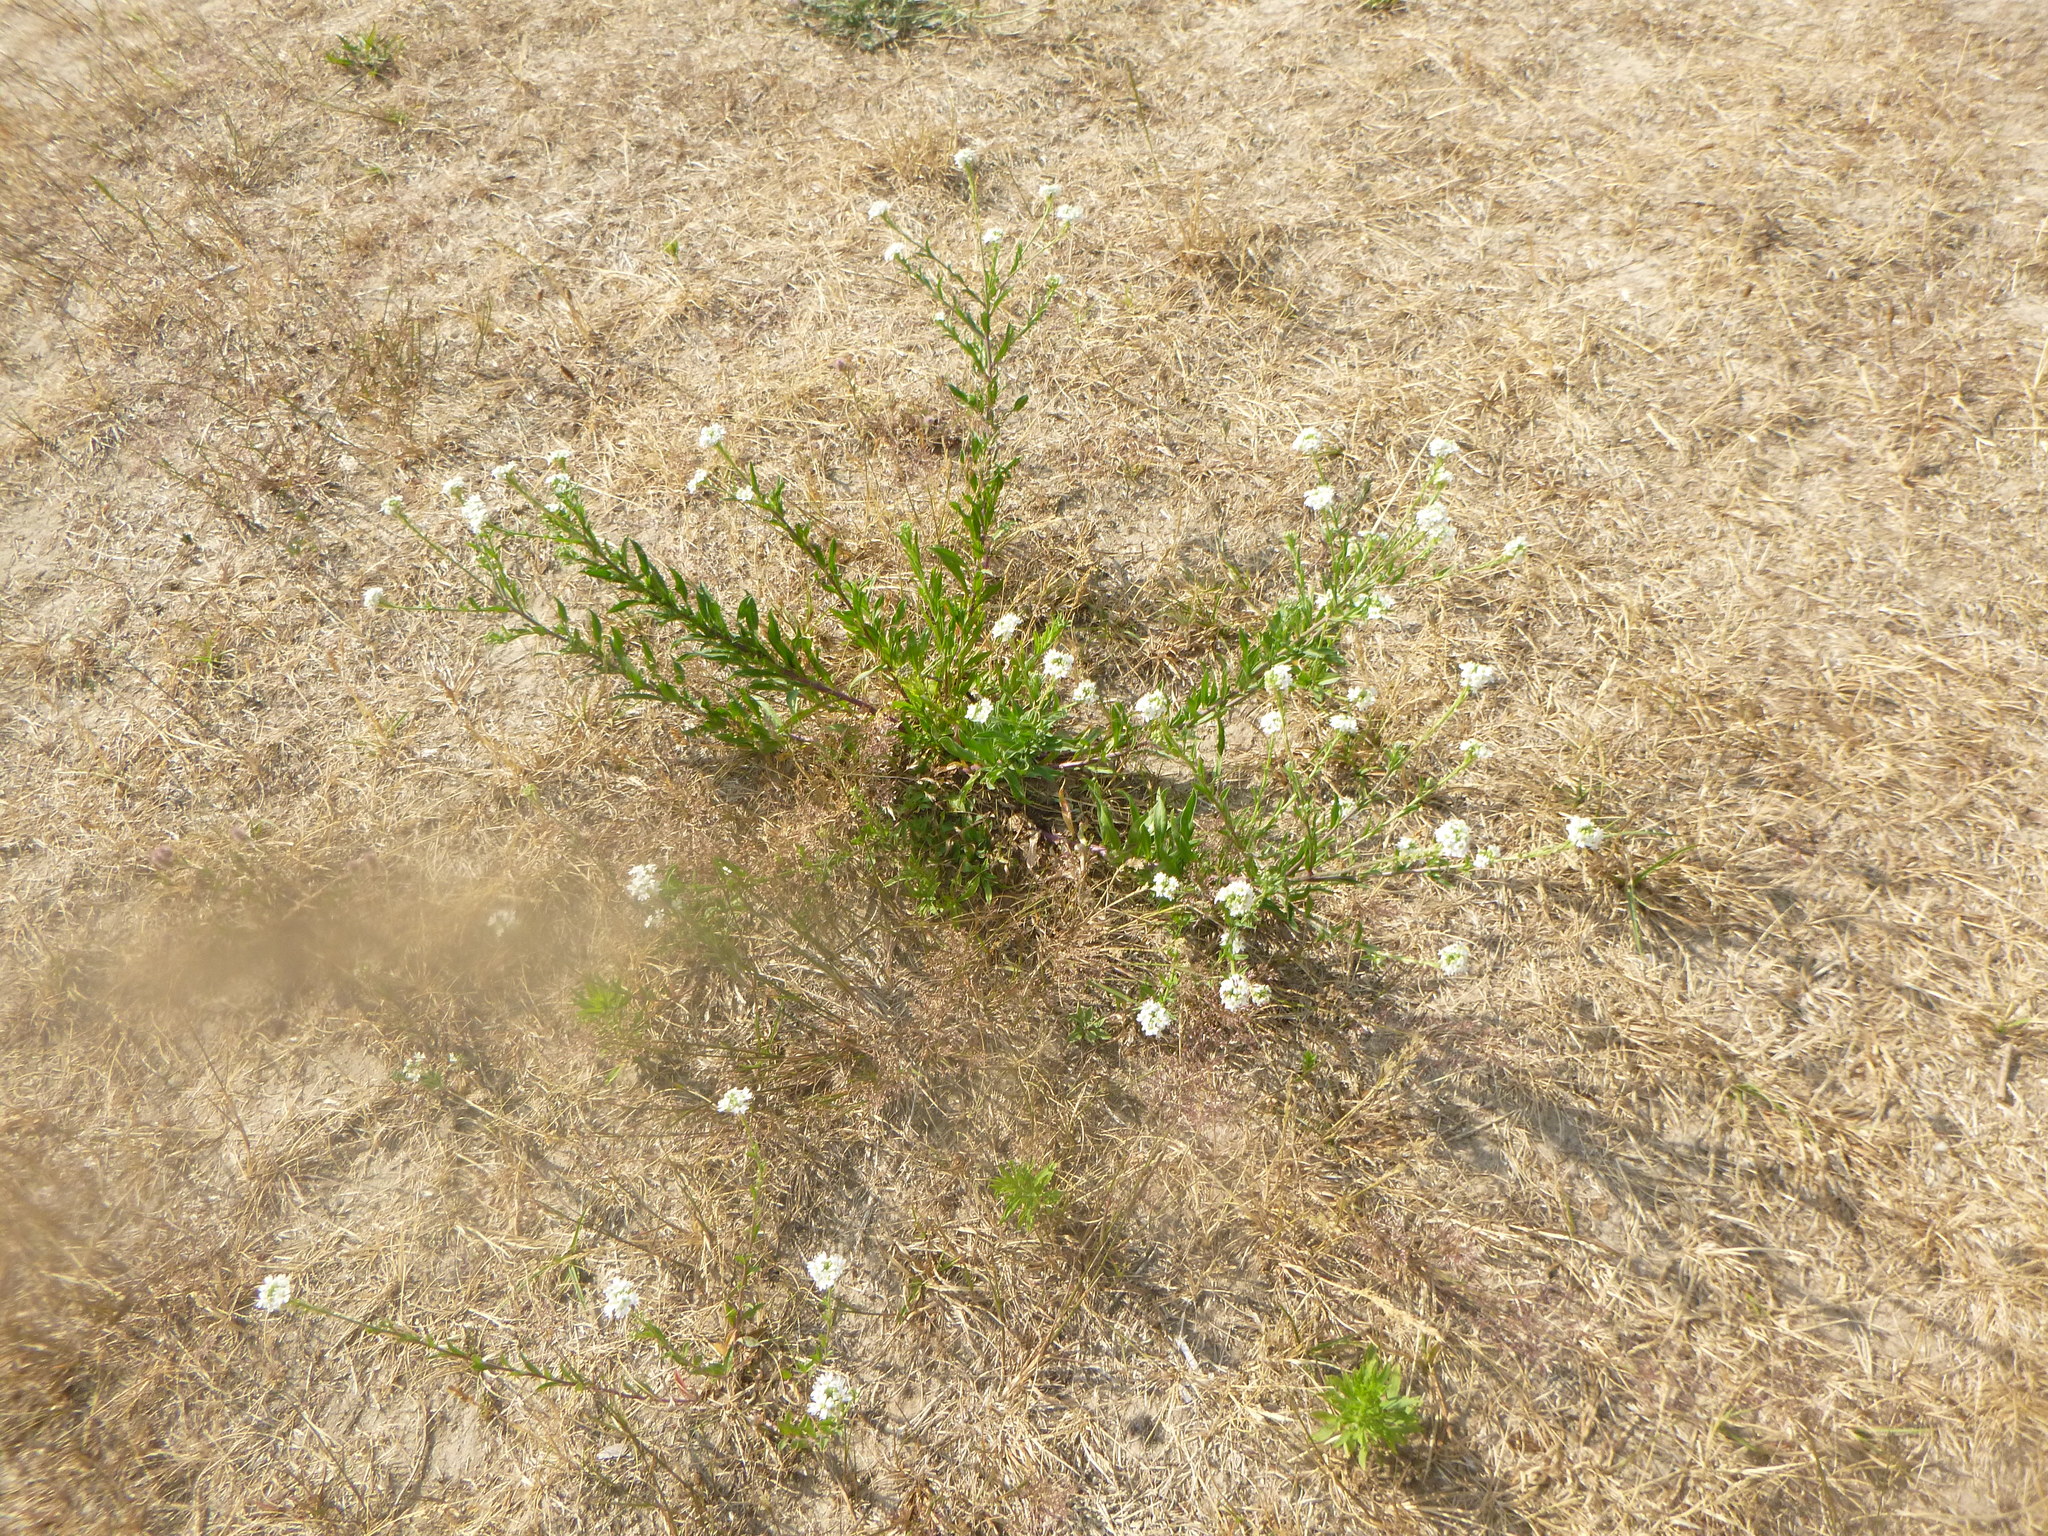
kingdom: Plantae
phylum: Tracheophyta
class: Magnoliopsida
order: Brassicales
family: Brassicaceae
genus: Berteroa
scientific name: Berteroa incana
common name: Hoary alison
